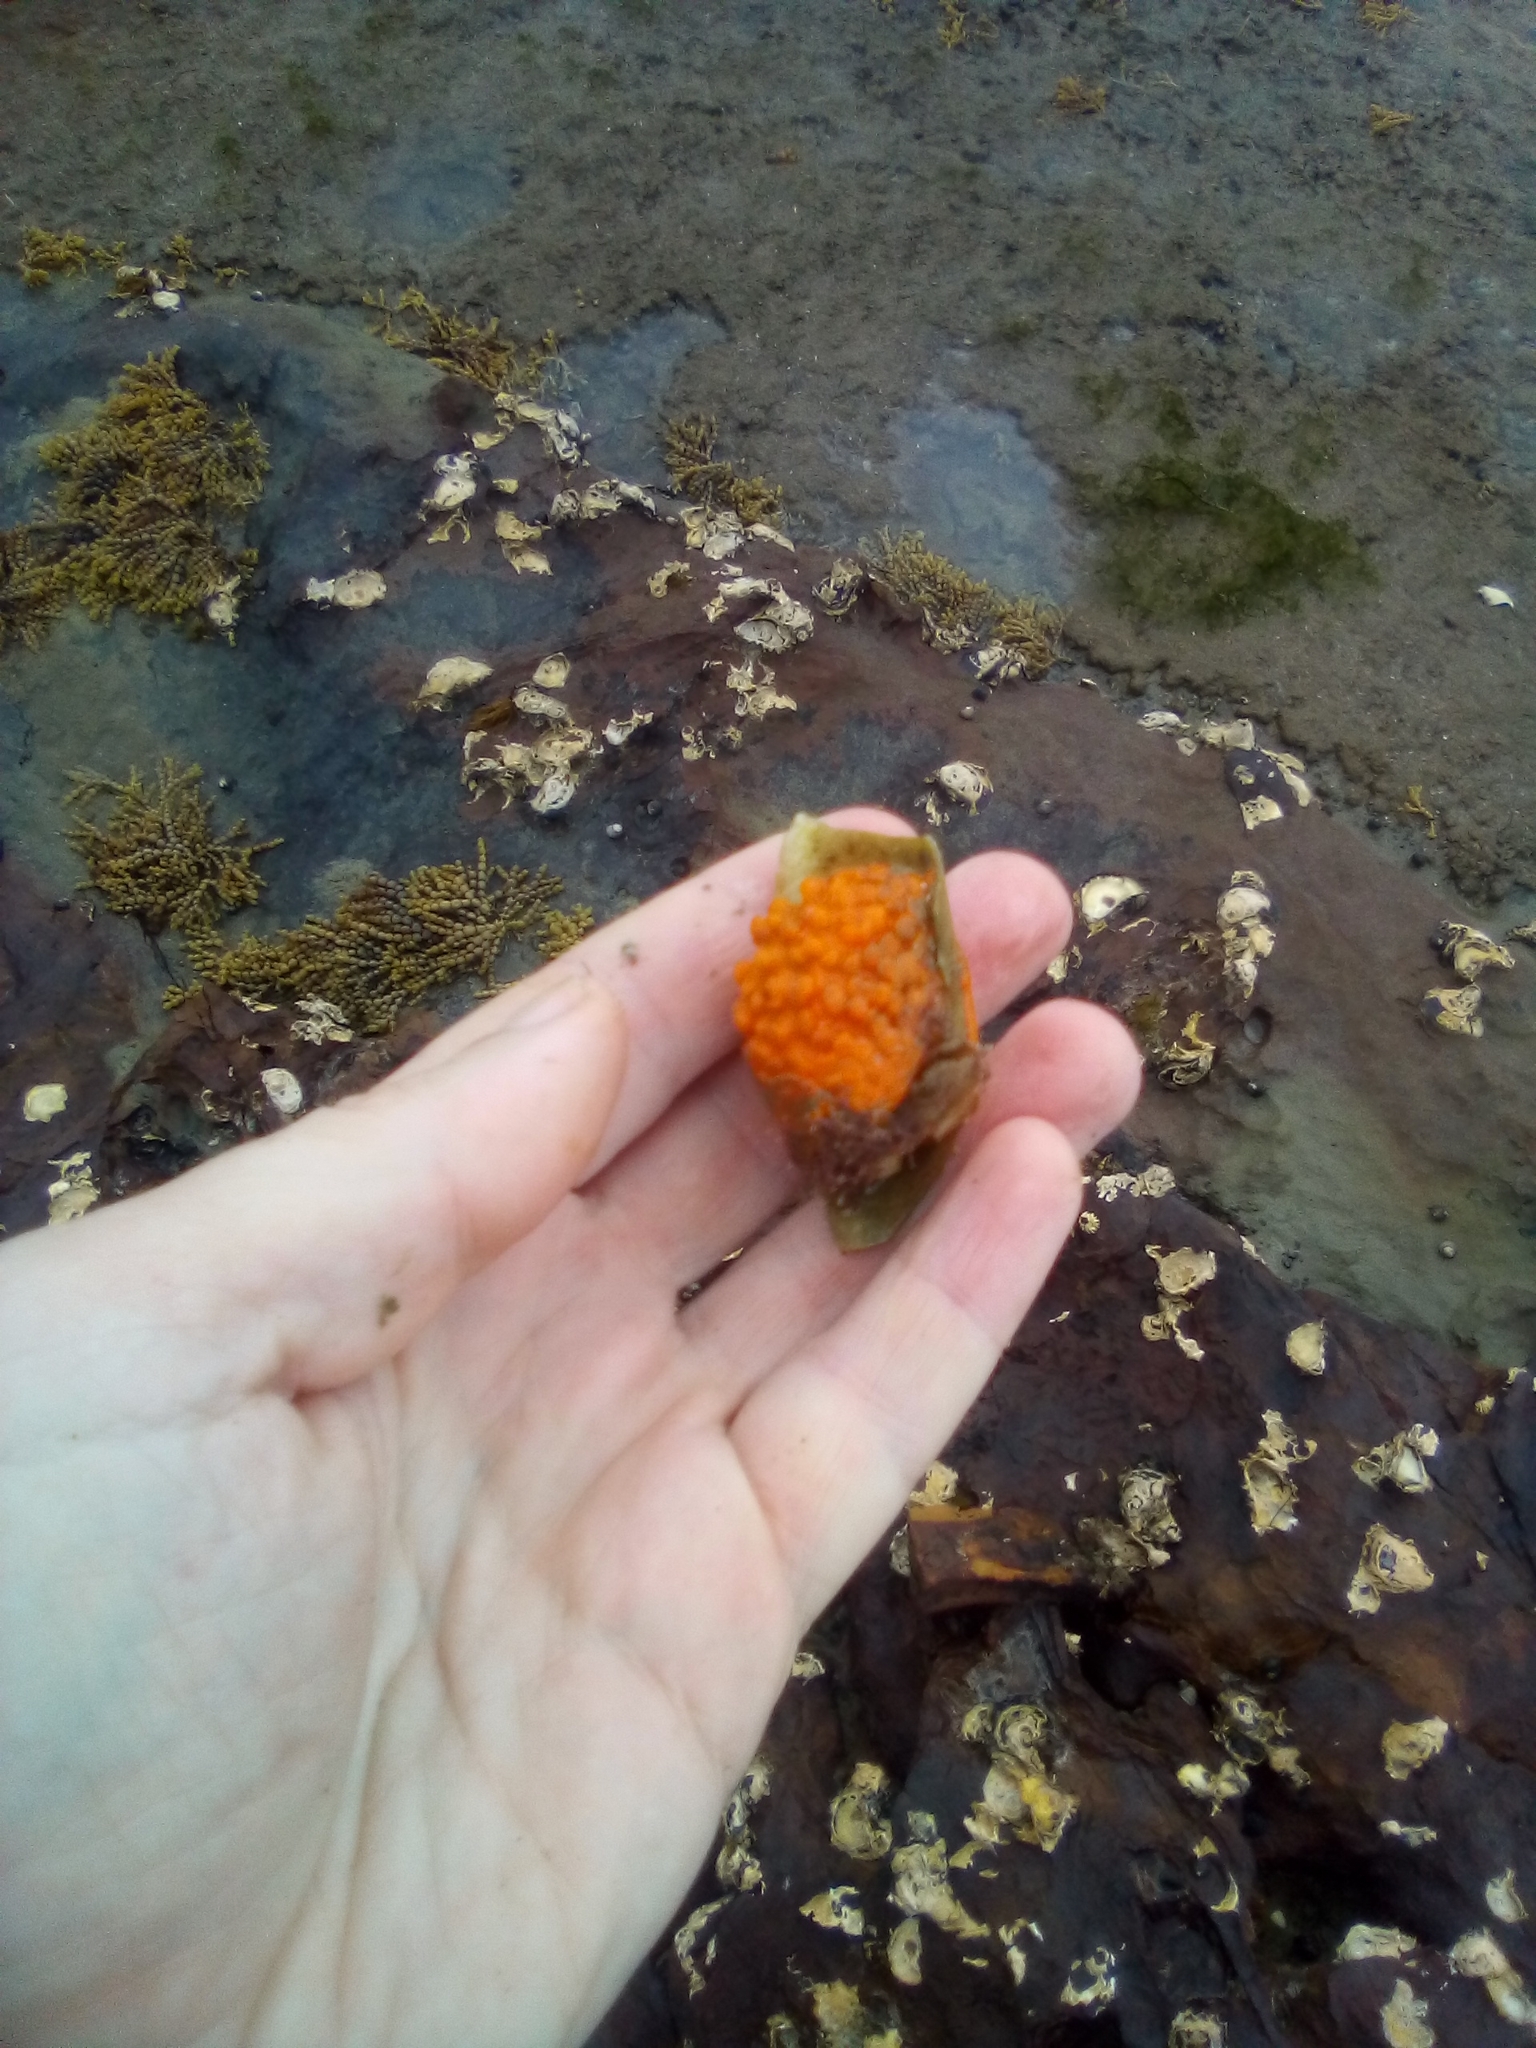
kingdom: Animalia
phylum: Porifera
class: Demospongiae
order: Tethyida
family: Tethyidae
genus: Tethya
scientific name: Tethya burtoni
